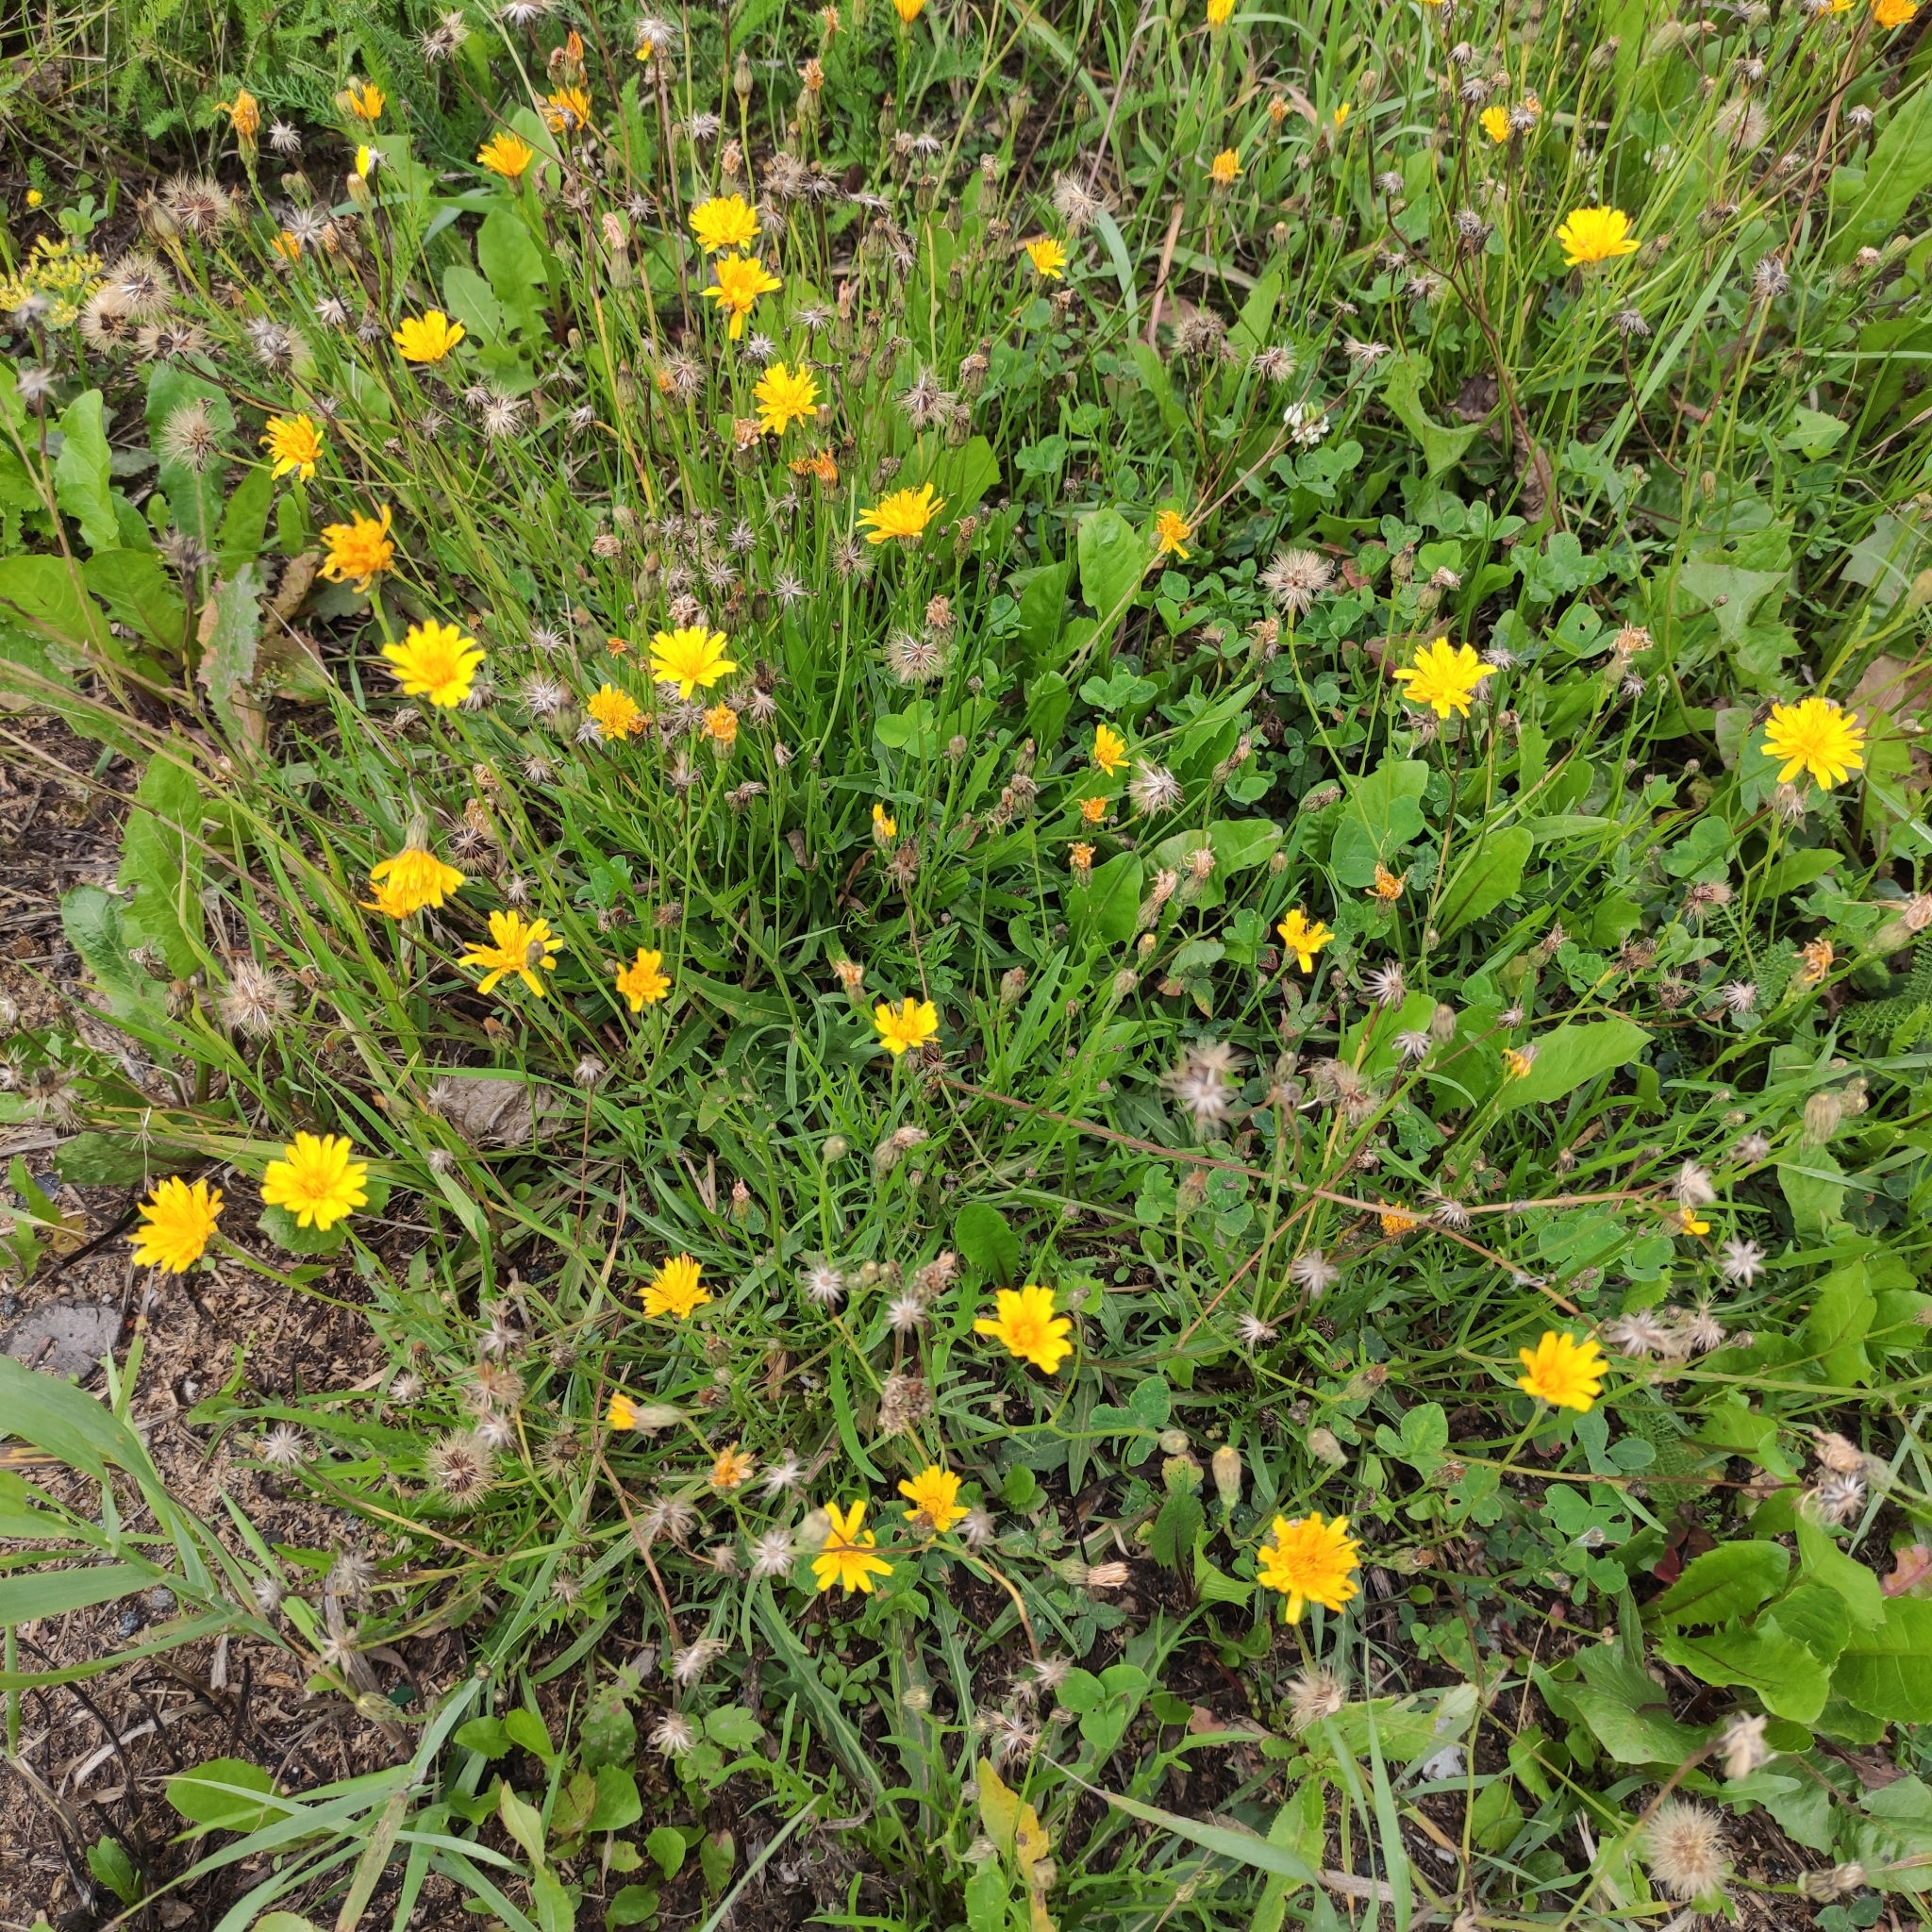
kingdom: Plantae
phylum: Tracheophyta
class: Magnoliopsida
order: Asterales
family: Asteraceae
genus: Scorzoneroides
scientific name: Scorzoneroides autumnalis
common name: Autumn hawkbit
